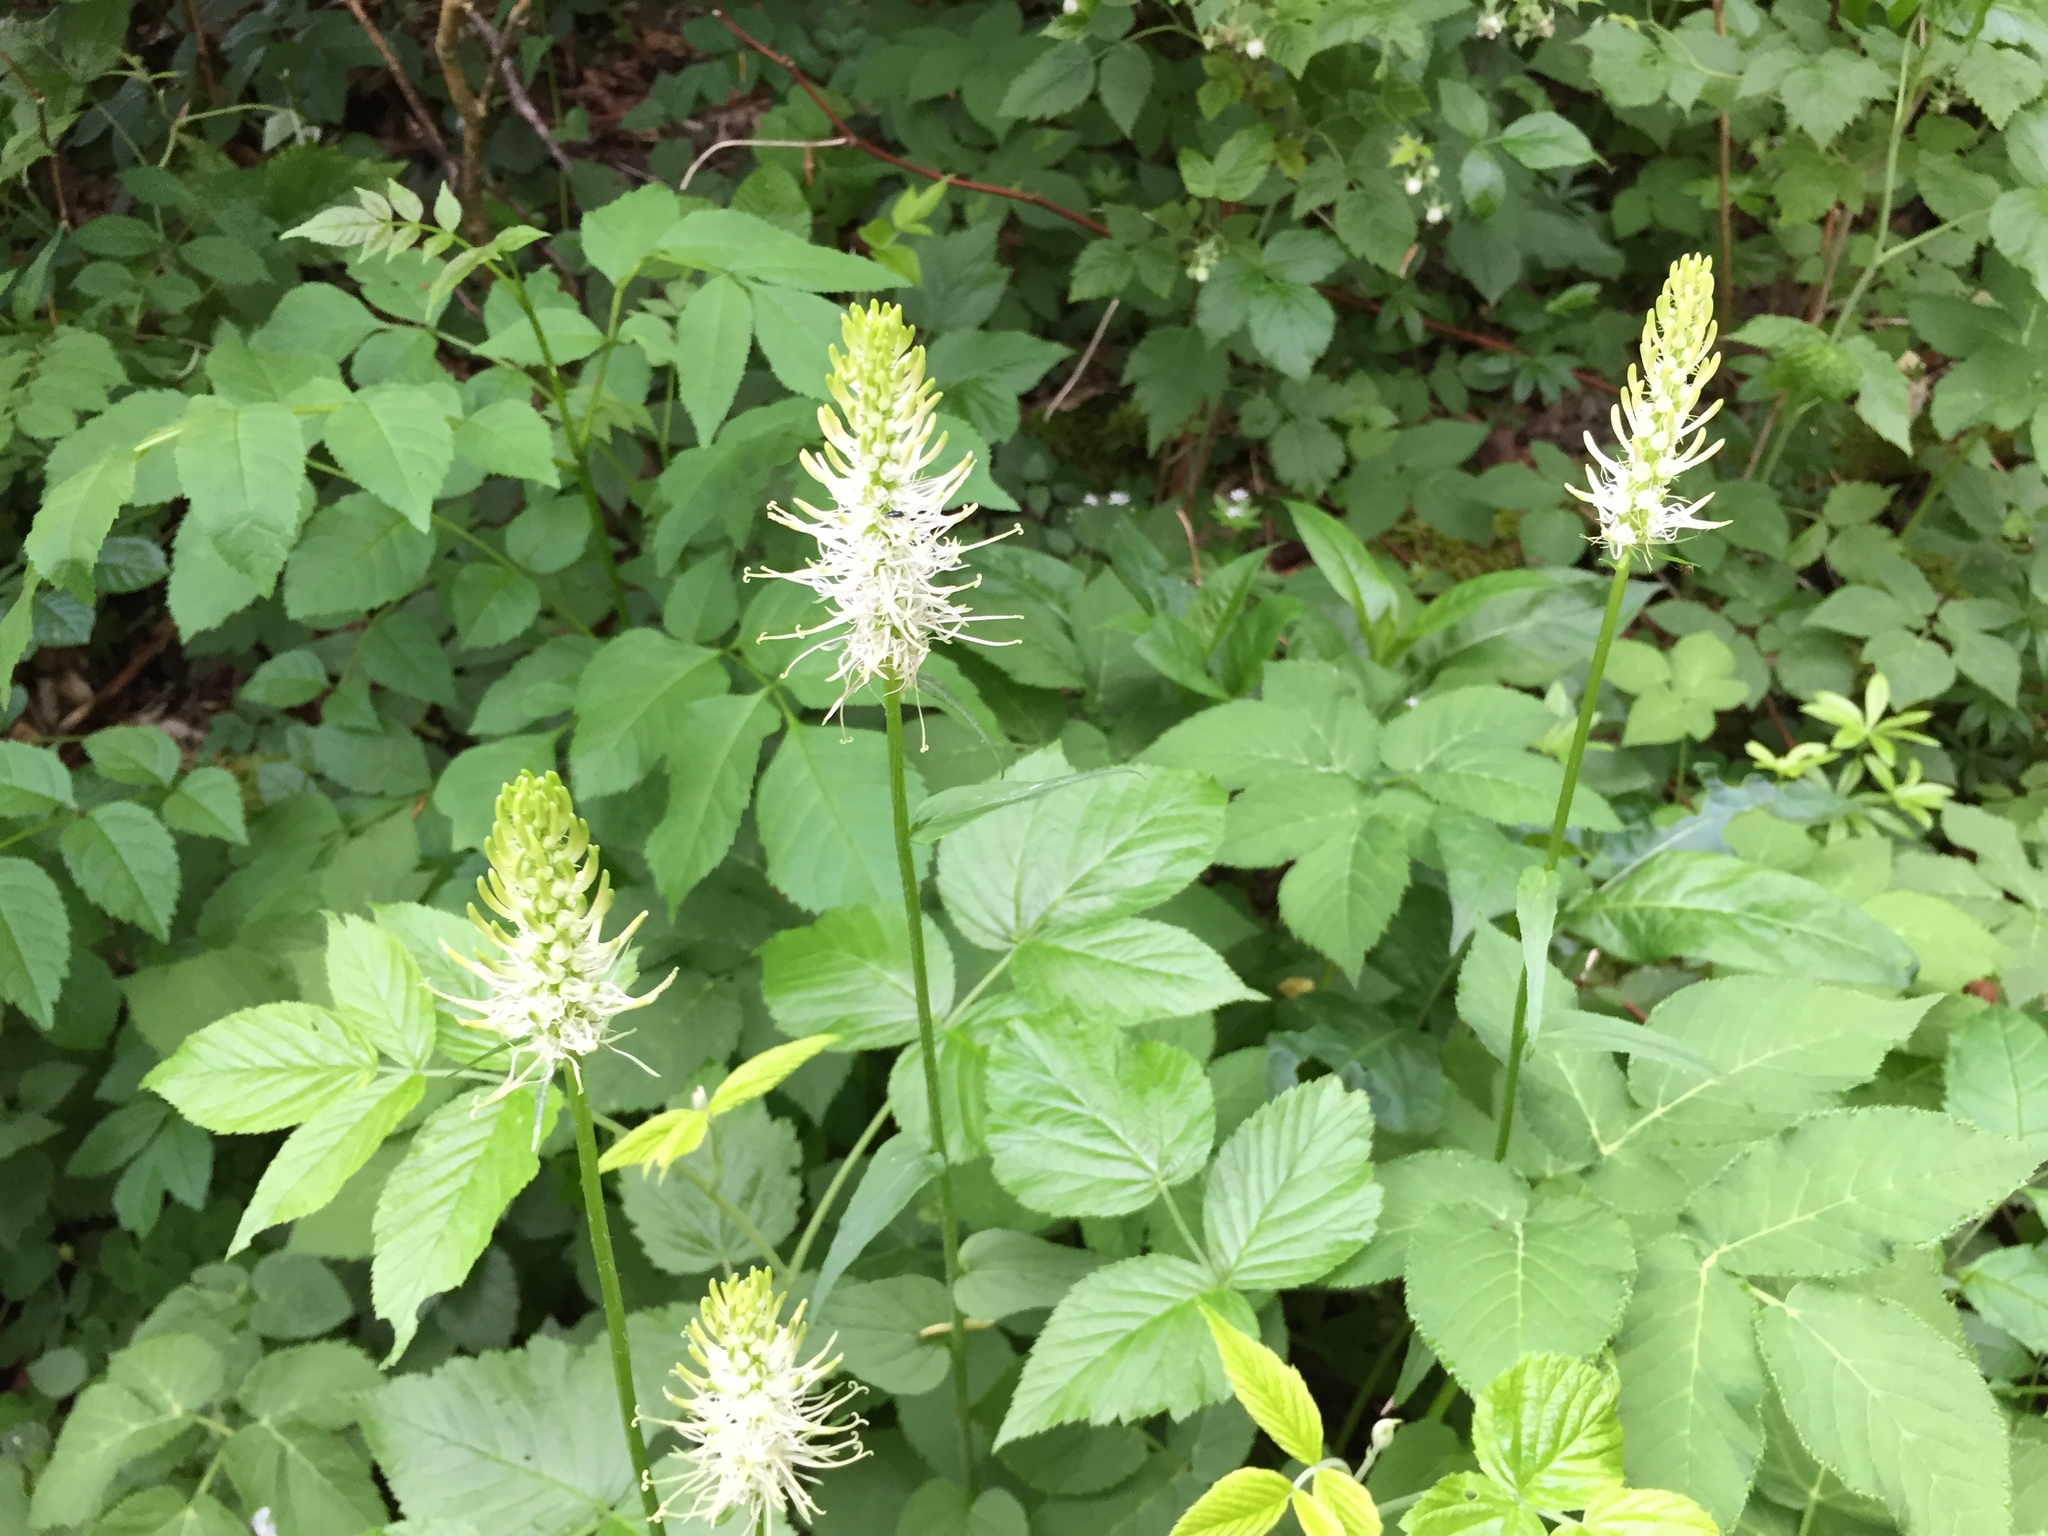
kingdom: Plantae
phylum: Tracheophyta
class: Magnoliopsida
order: Asterales
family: Campanulaceae
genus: Phyteuma
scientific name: Phyteuma spicatum
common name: Spiked rampion
